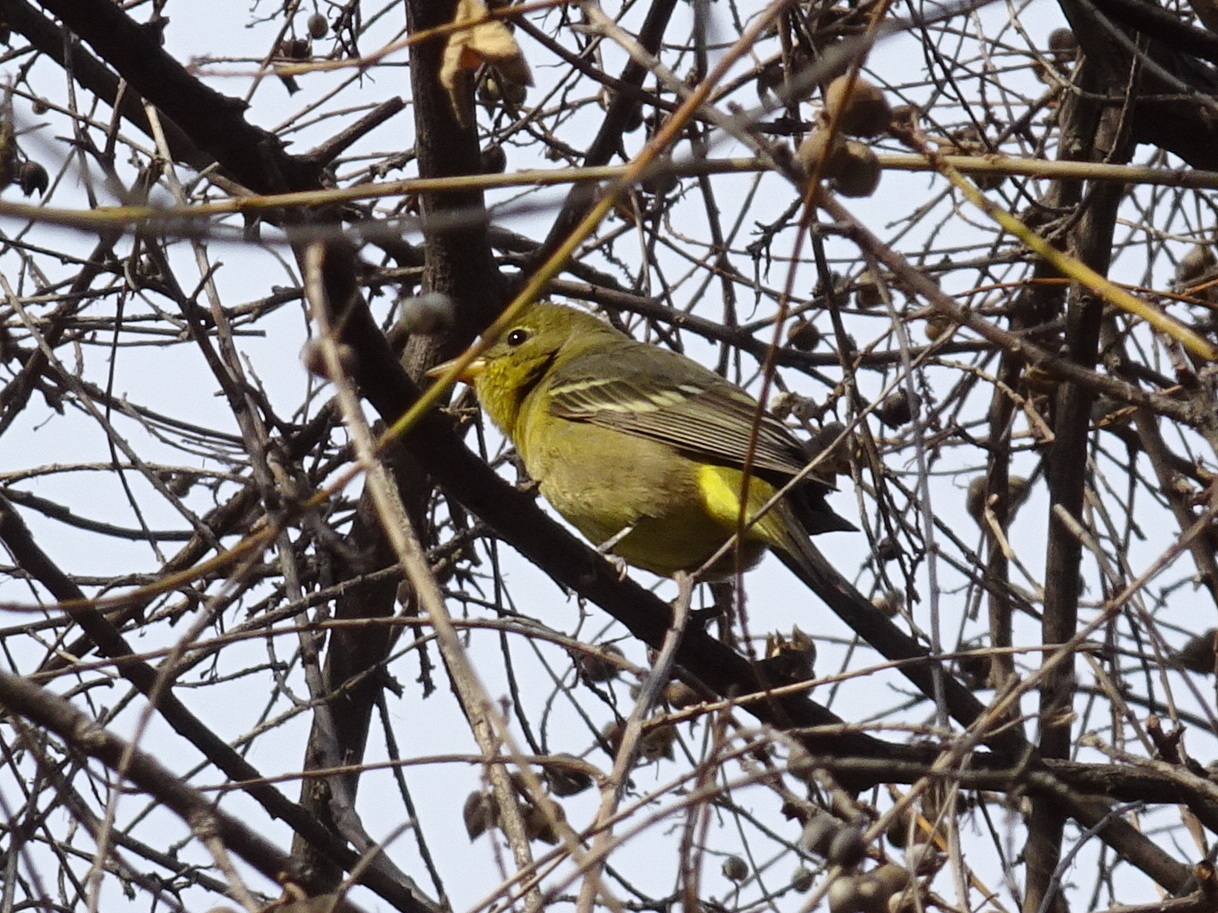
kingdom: Animalia
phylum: Chordata
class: Aves
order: Passeriformes
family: Cardinalidae
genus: Piranga
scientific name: Piranga ludoviciana
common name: Western tanager
